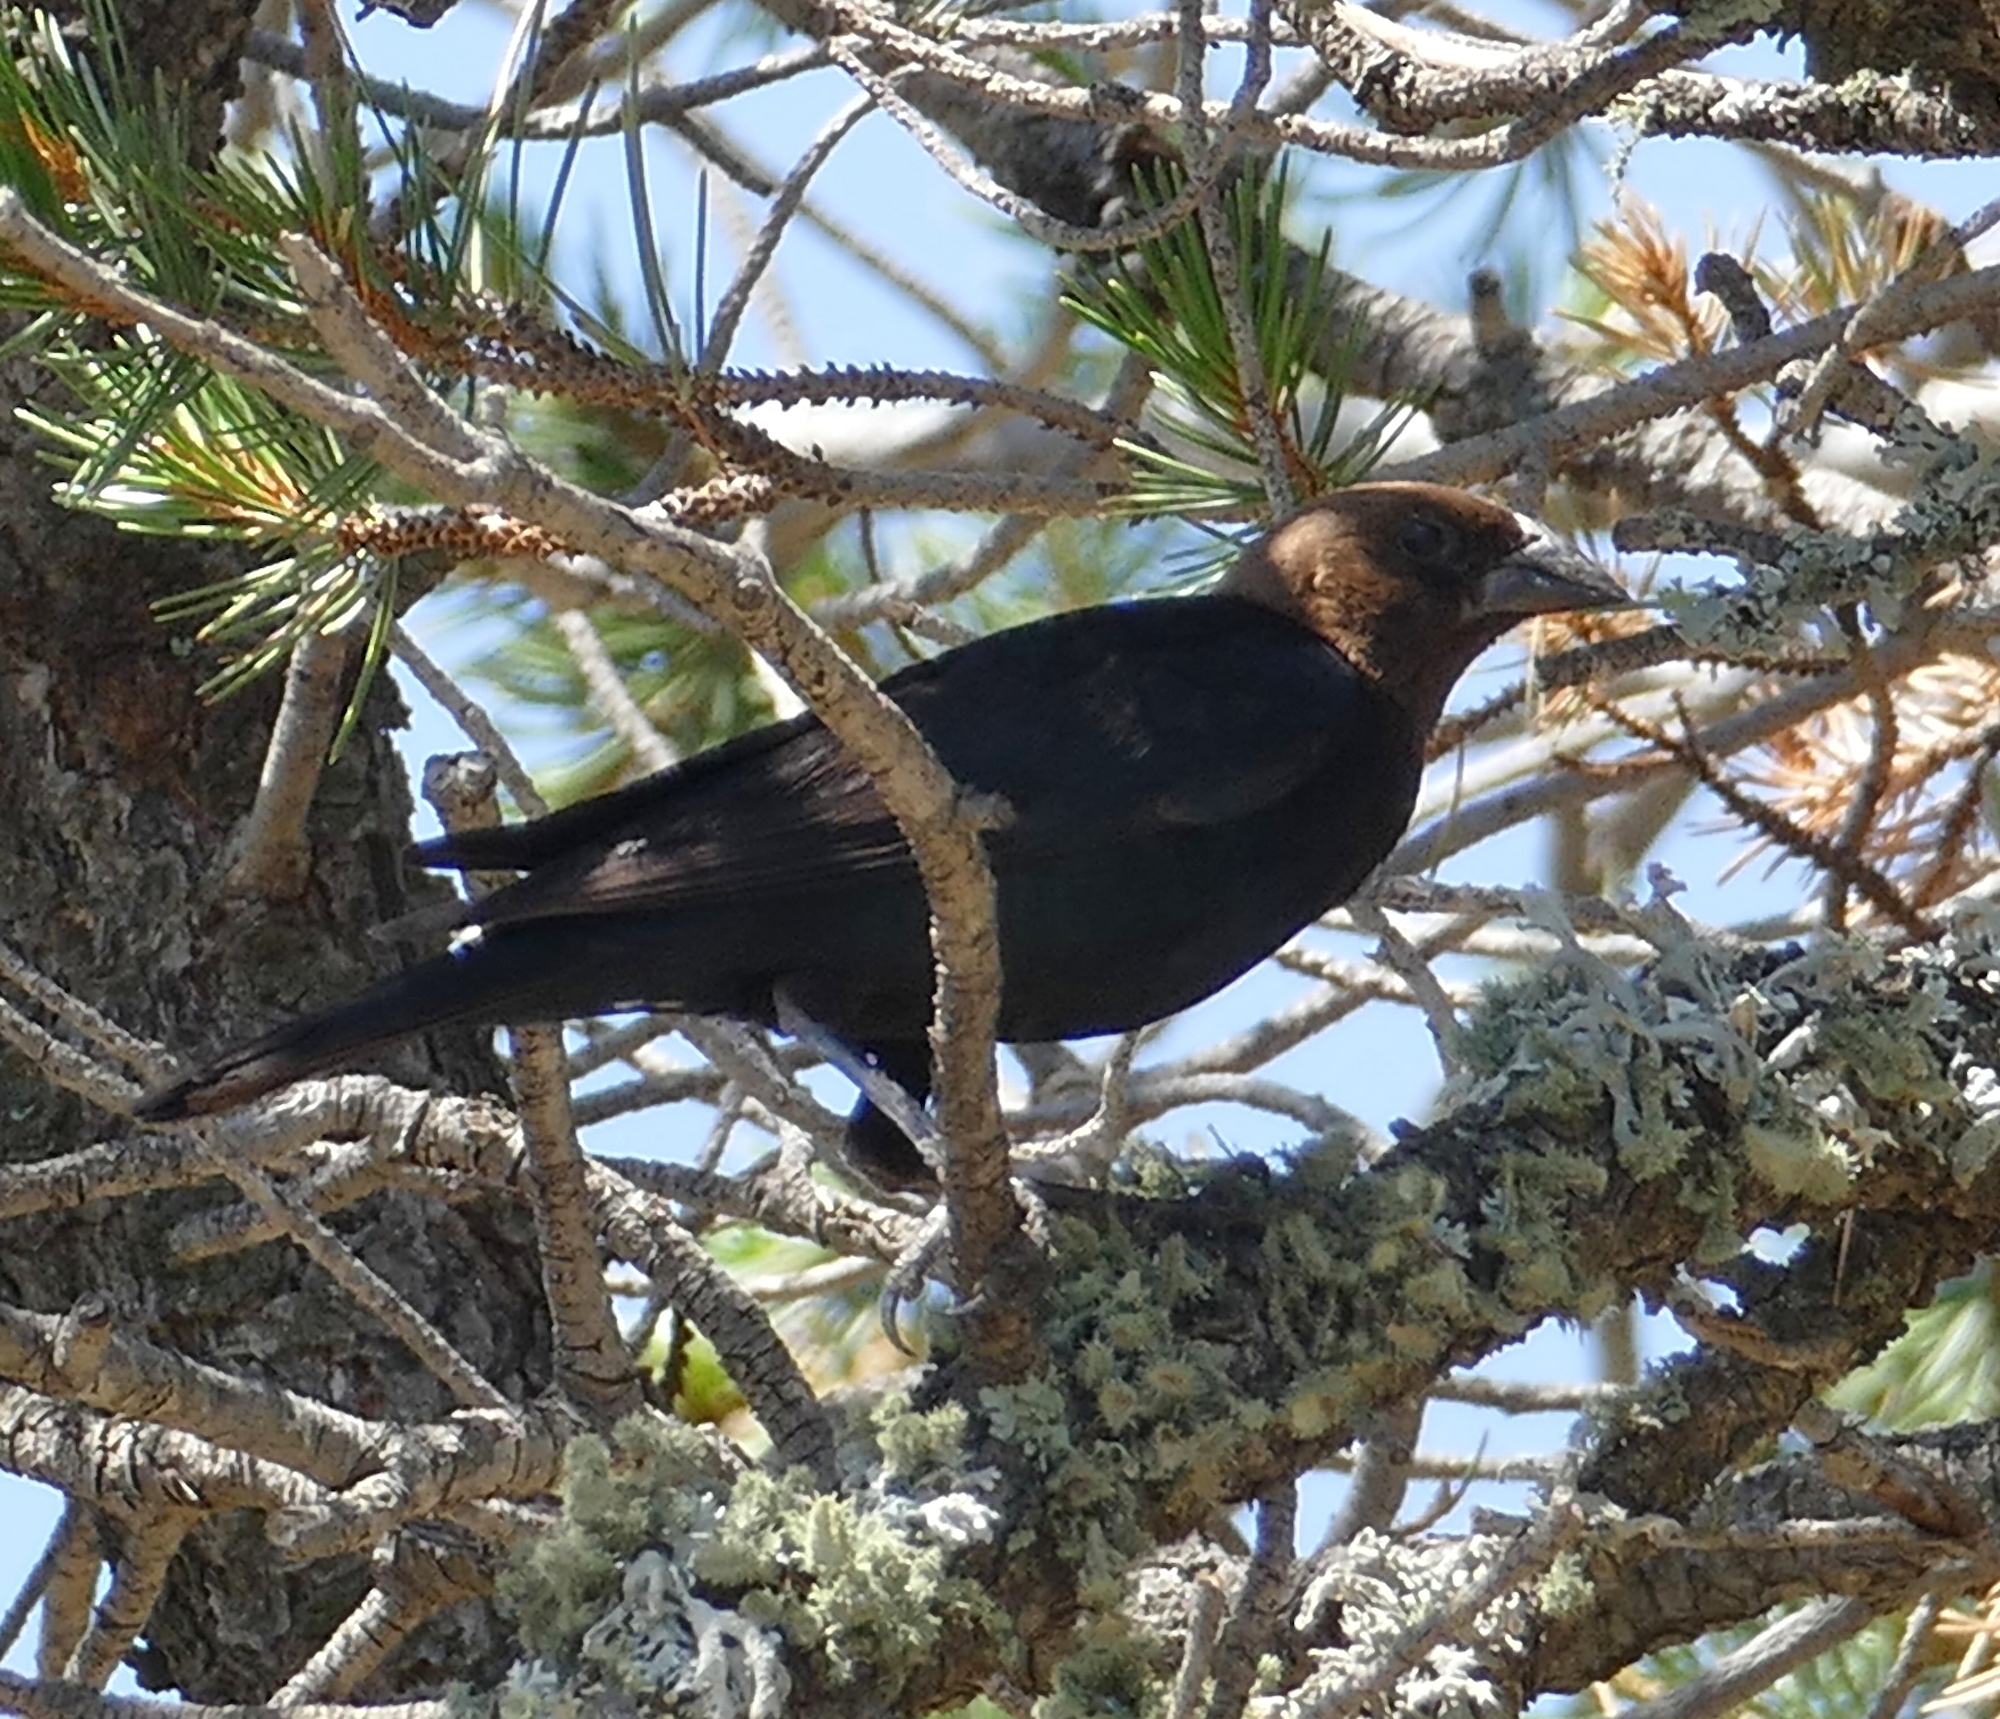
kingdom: Animalia
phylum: Chordata
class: Aves
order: Passeriformes
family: Icteridae
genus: Molothrus
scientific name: Molothrus ater
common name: Brown-headed cowbird
